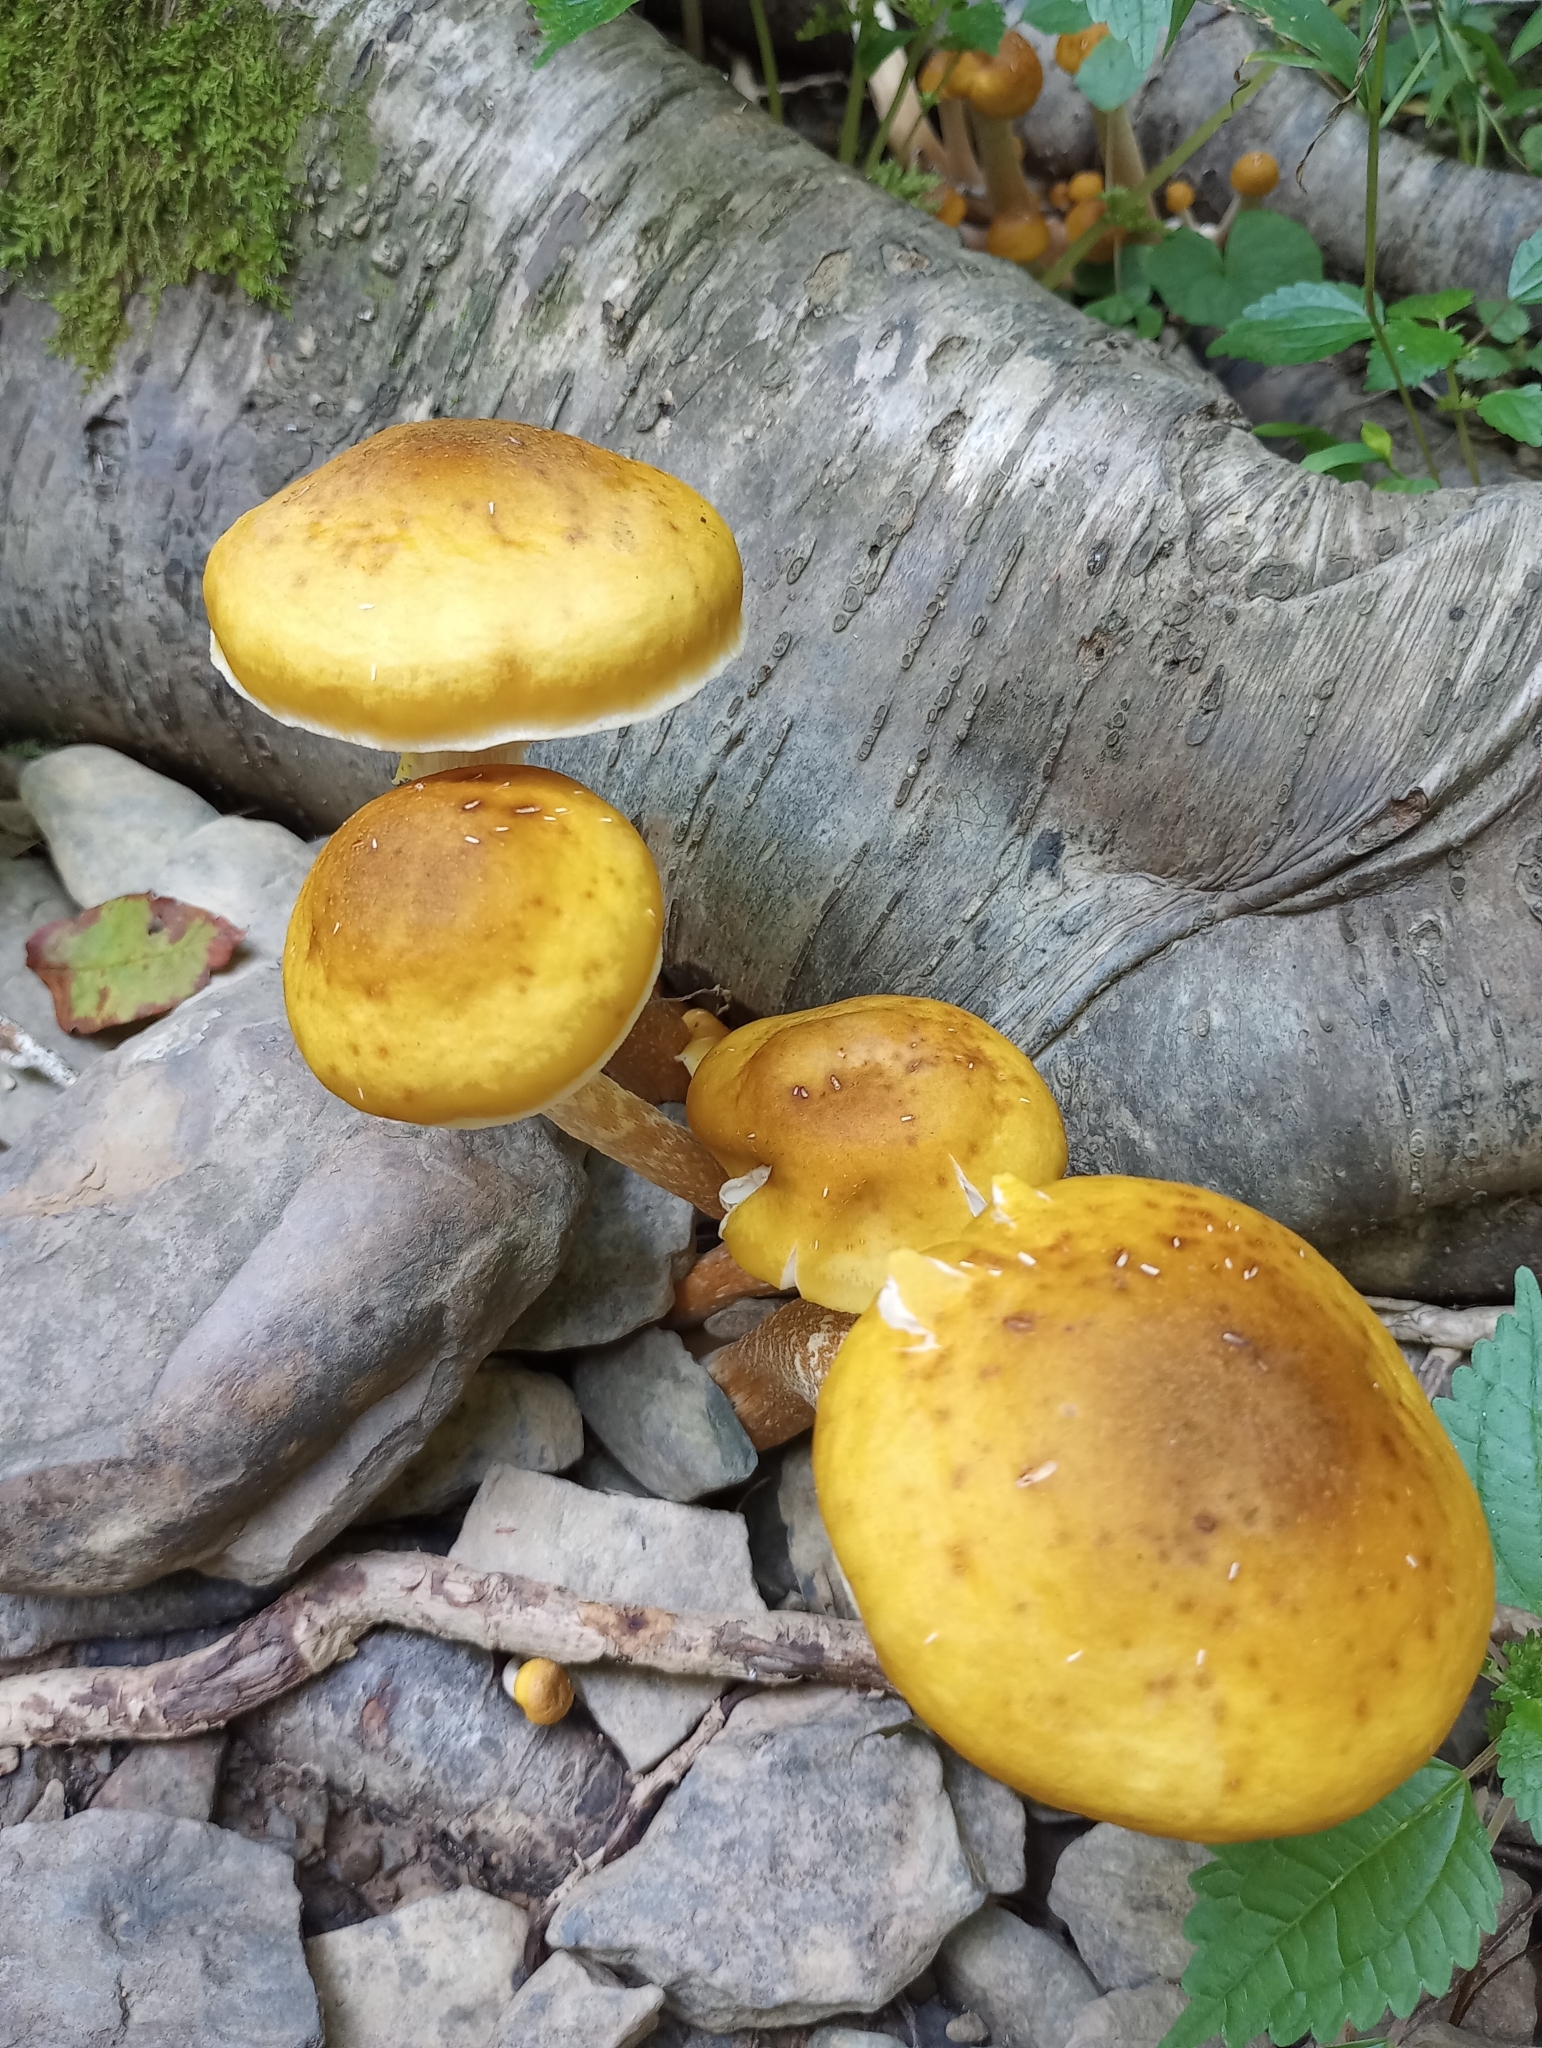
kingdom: Fungi
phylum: Basidiomycota
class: Agaricomycetes
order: Agaricales
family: Physalacriaceae
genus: Armillaria
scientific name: Armillaria mellea
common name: Honey fungus
